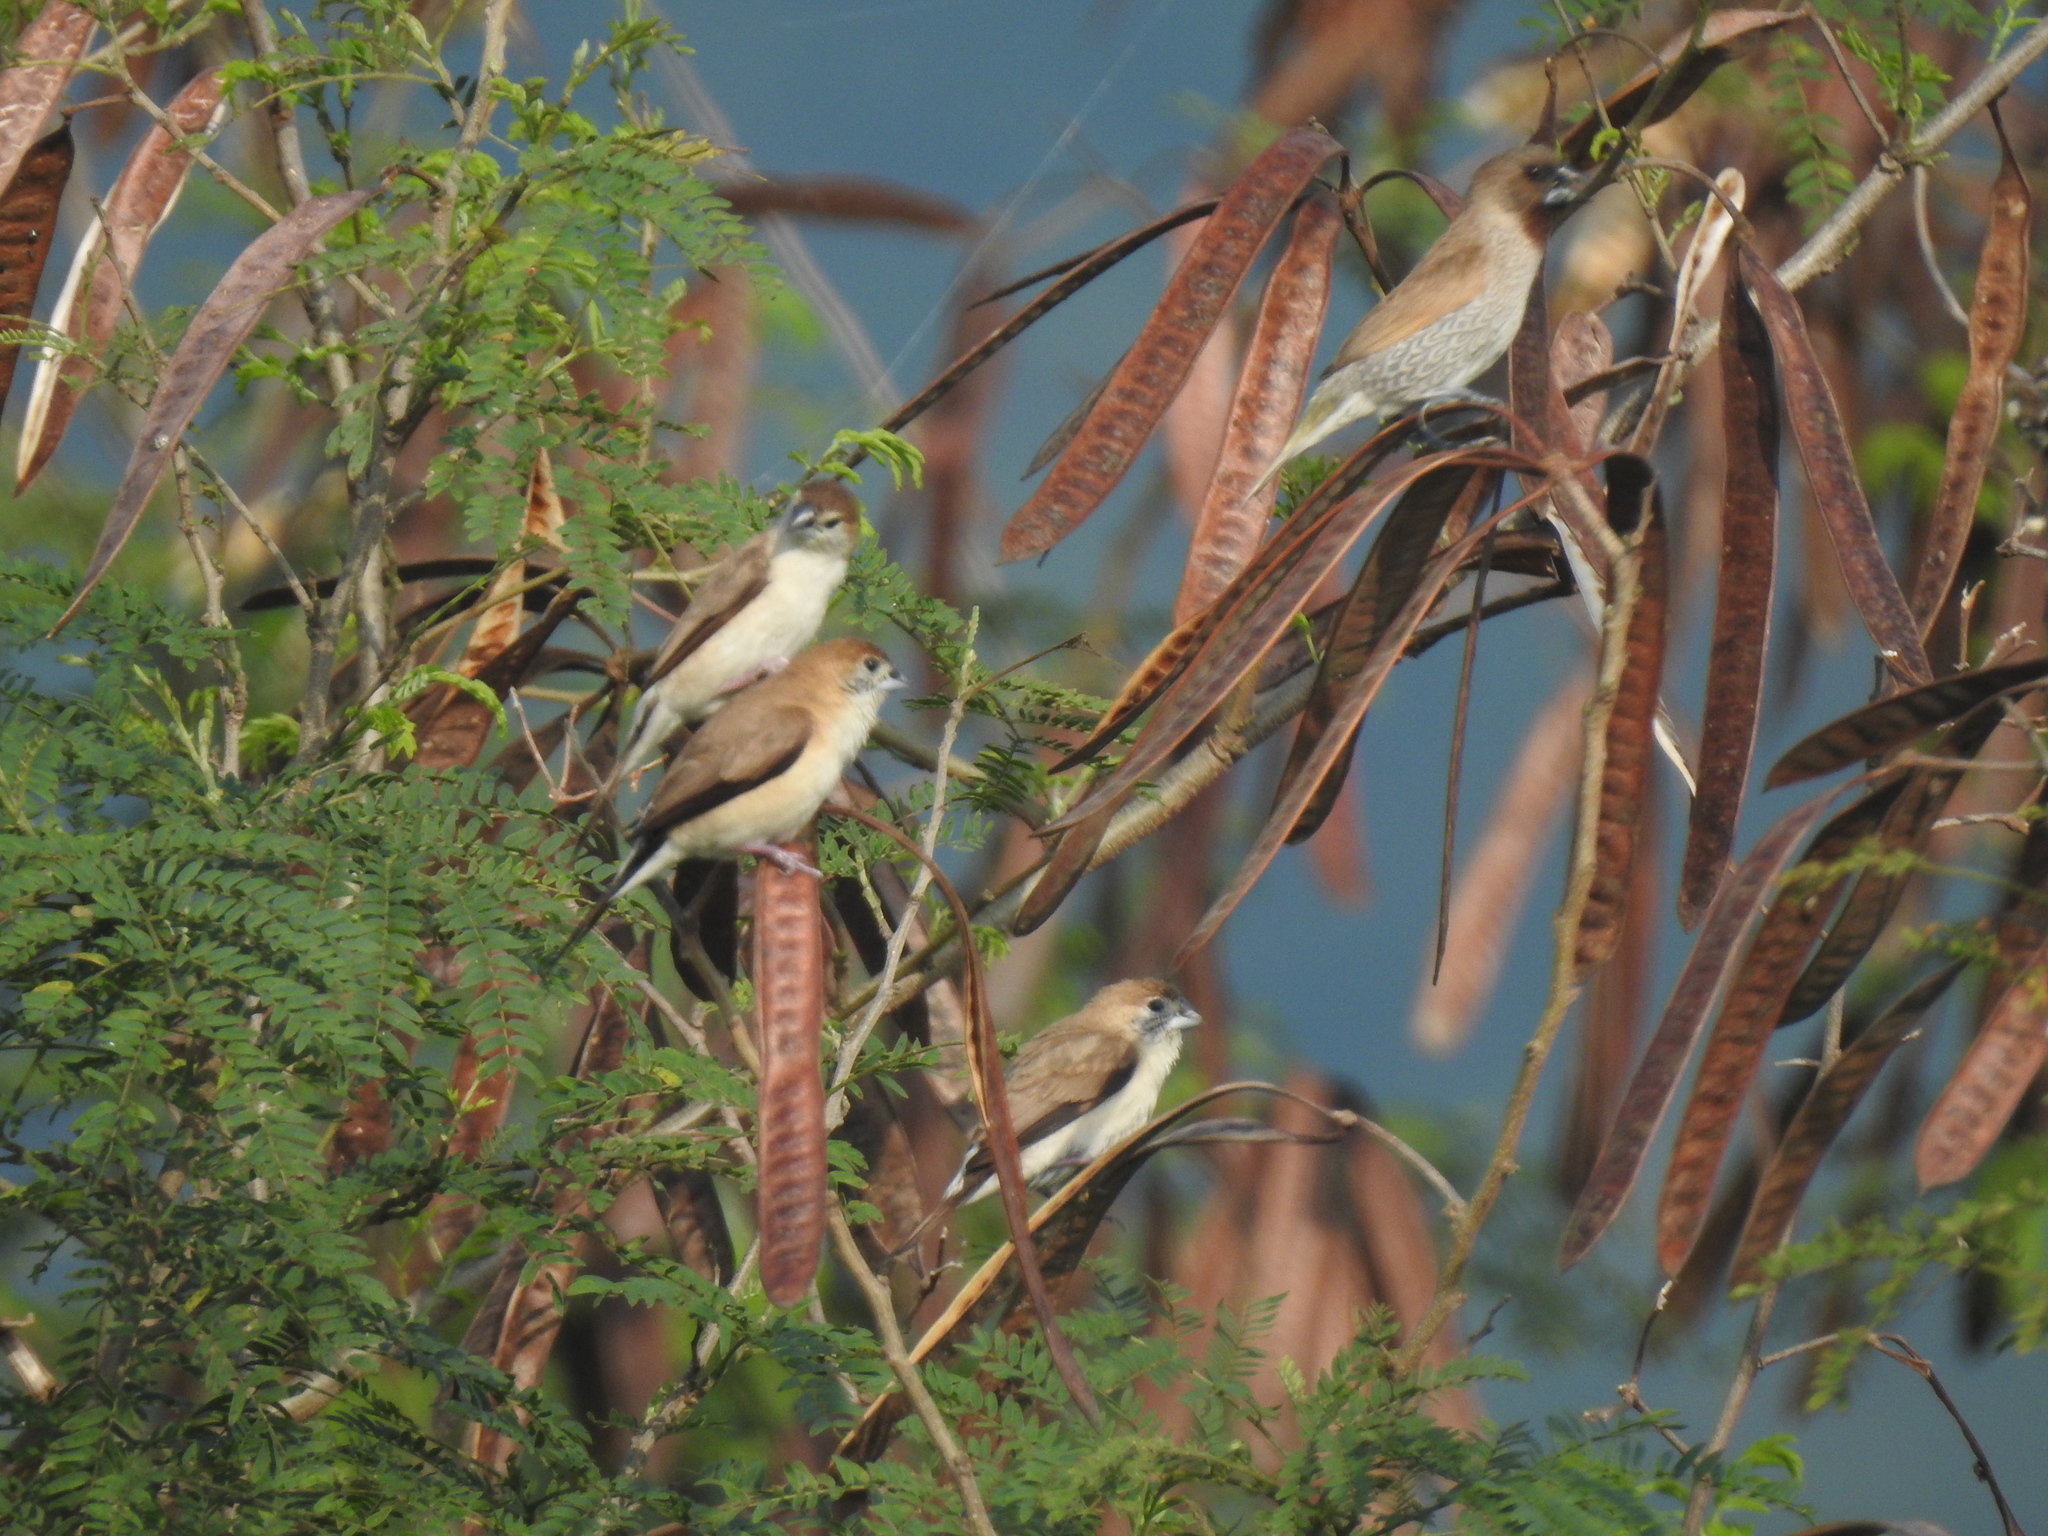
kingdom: Animalia
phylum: Chordata
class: Aves
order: Passeriformes
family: Estrildidae
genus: Euodice
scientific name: Euodice malabarica
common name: Indian silverbill
